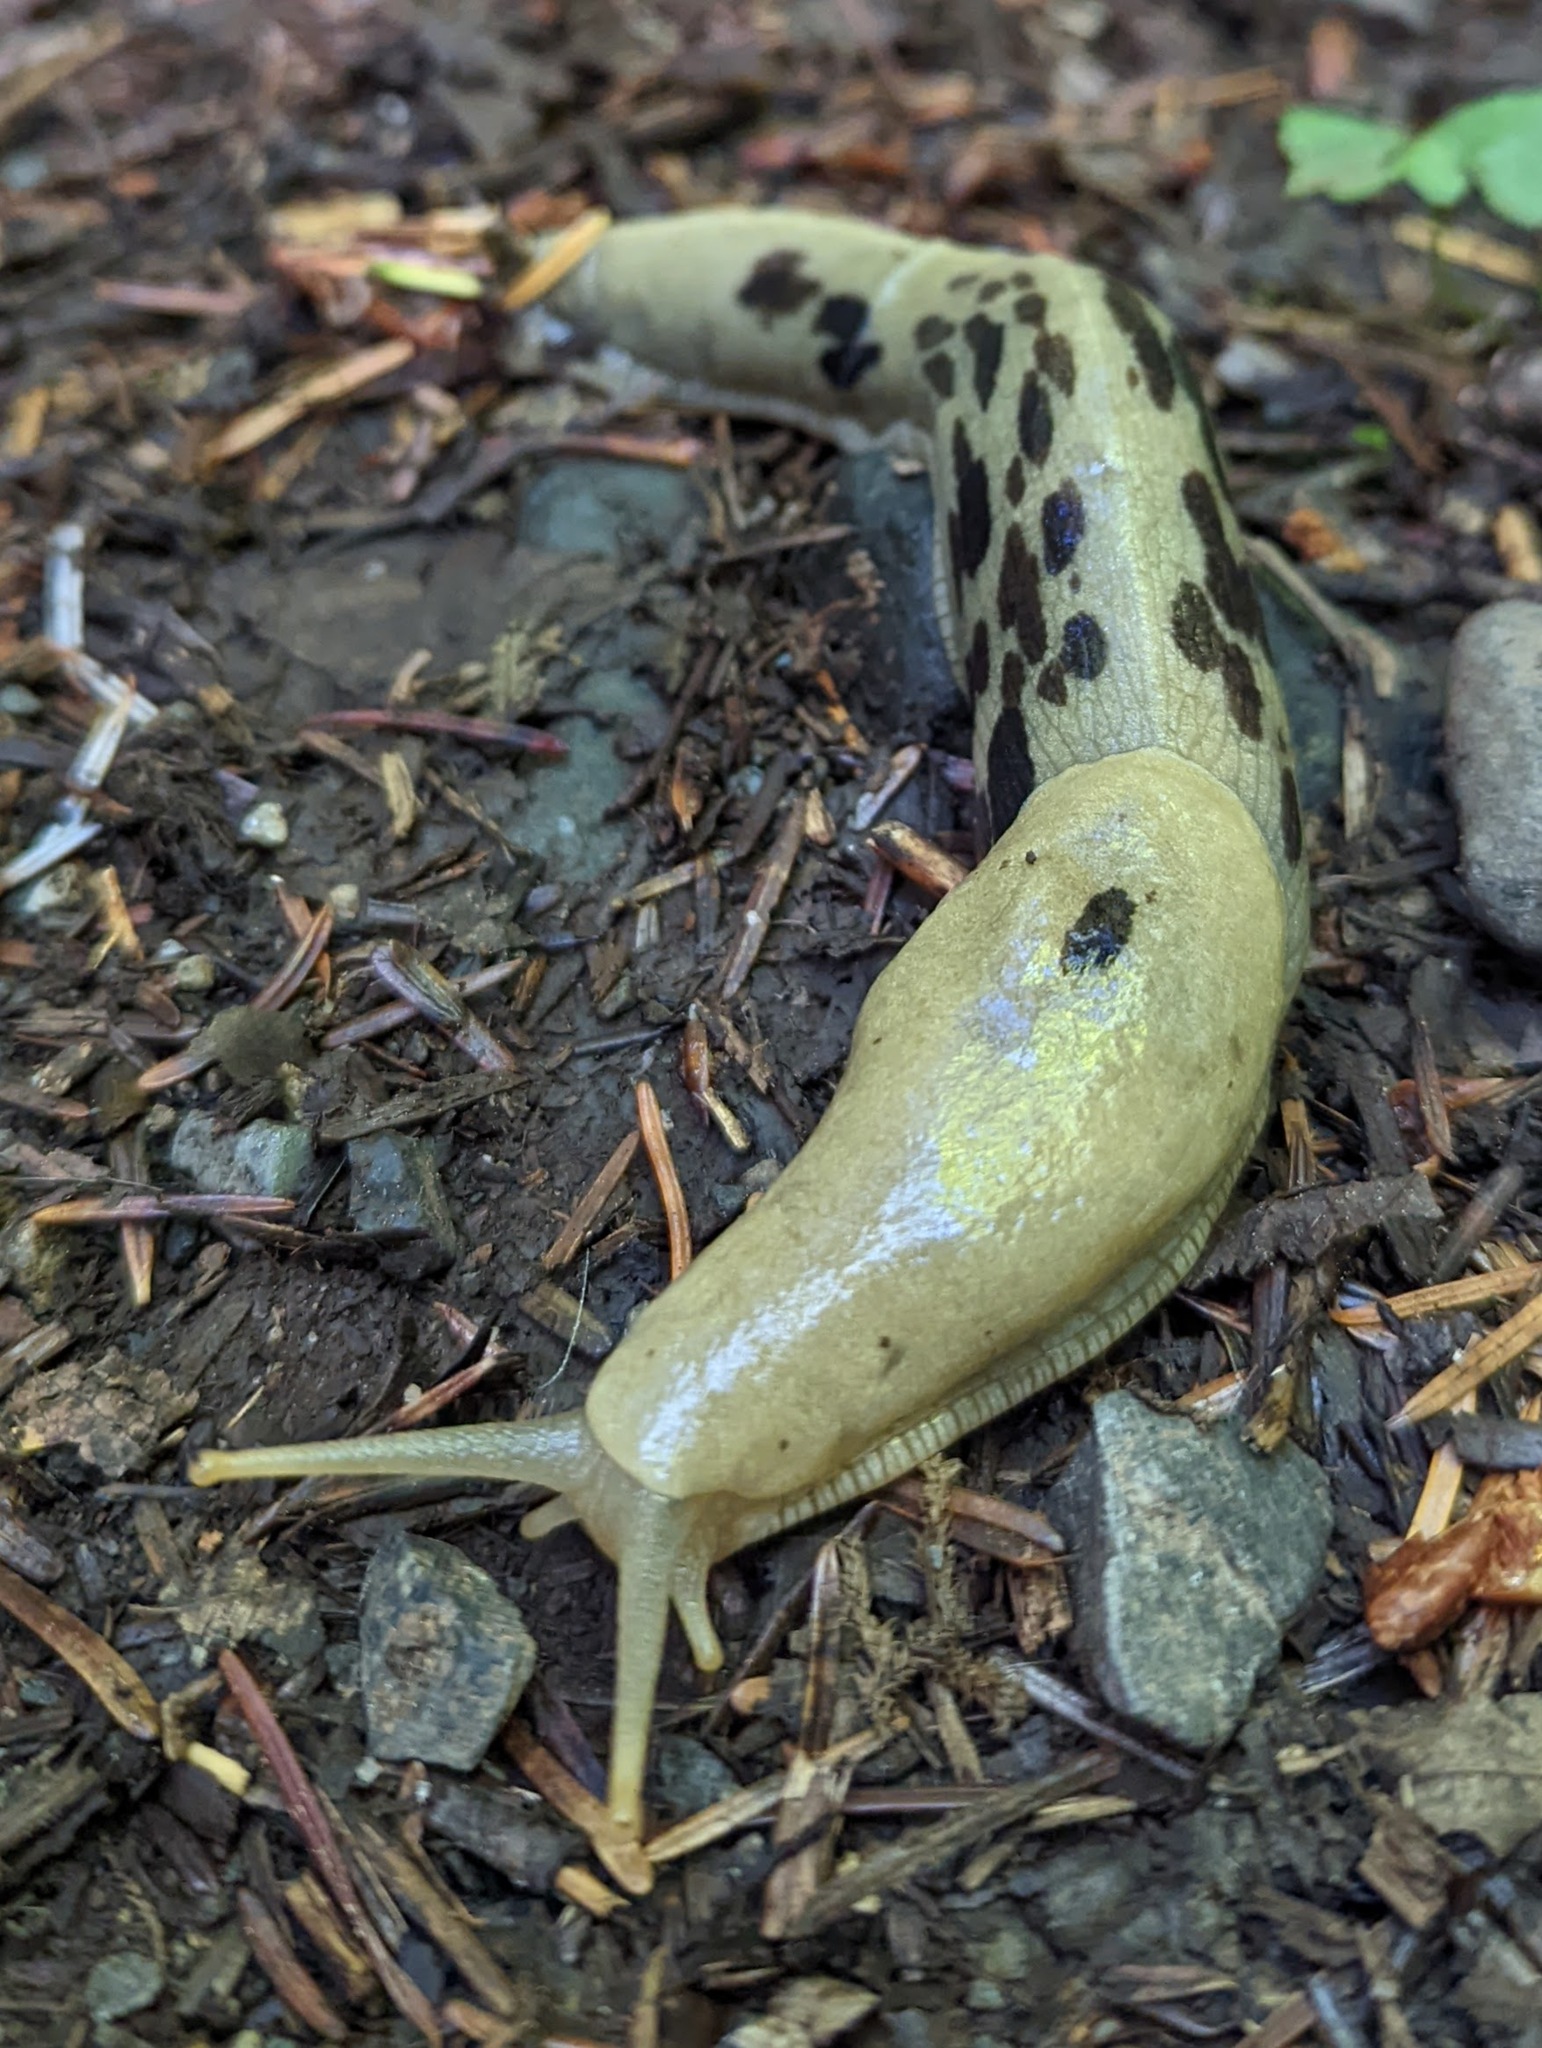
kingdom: Animalia
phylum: Mollusca
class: Gastropoda
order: Stylommatophora
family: Ariolimacidae
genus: Ariolimax
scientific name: Ariolimax columbianus
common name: Pacific banana slug
